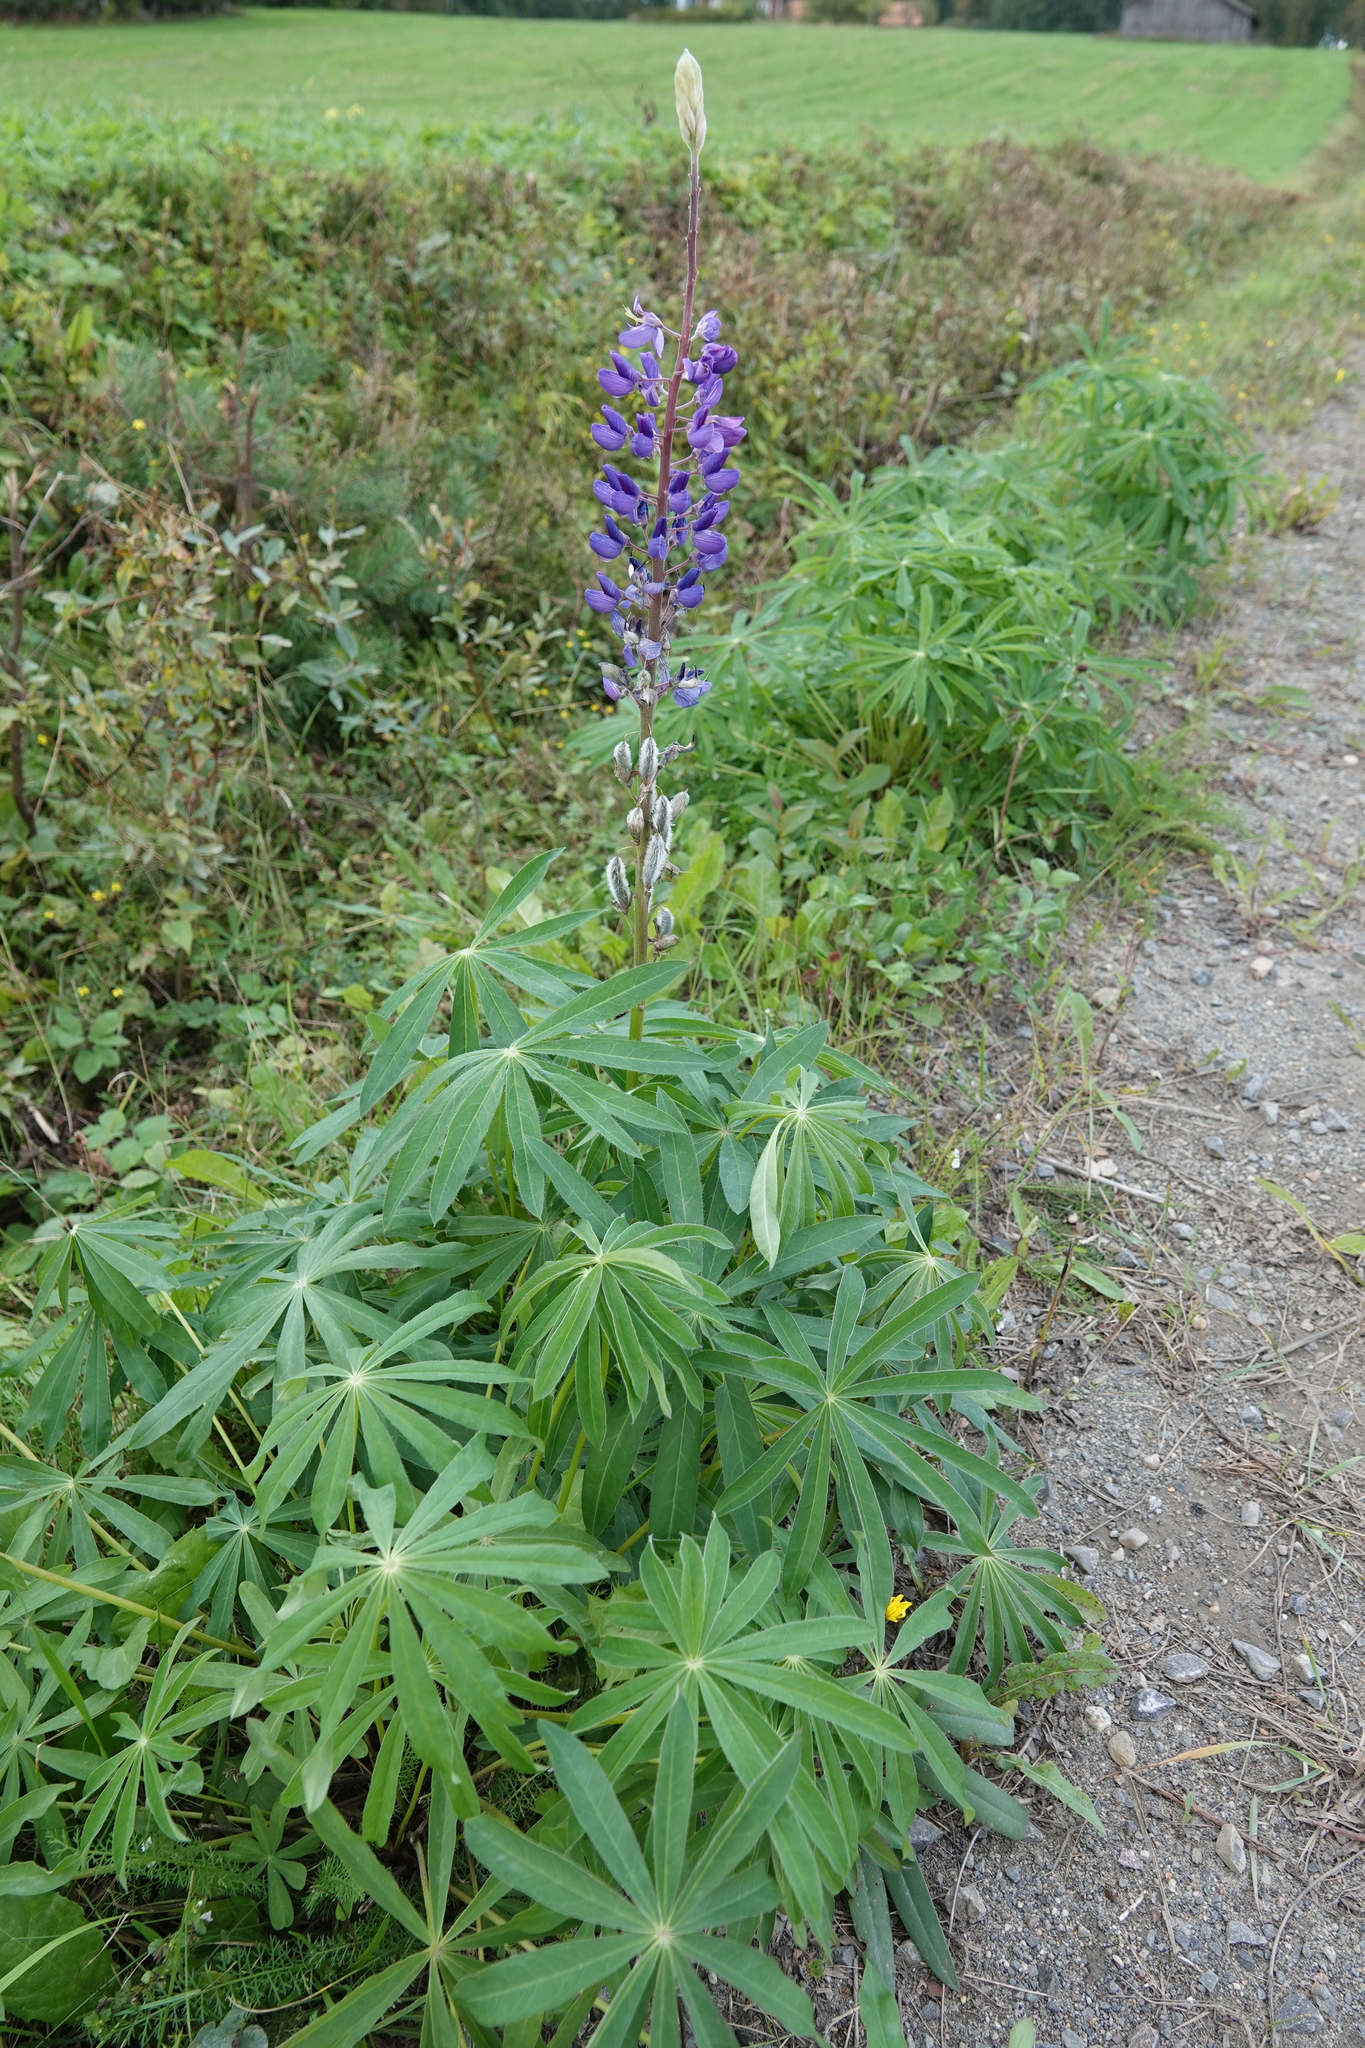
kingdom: Plantae
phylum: Tracheophyta
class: Magnoliopsida
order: Fabales
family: Fabaceae
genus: Lupinus
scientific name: Lupinus polyphyllus
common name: Garden lupin
